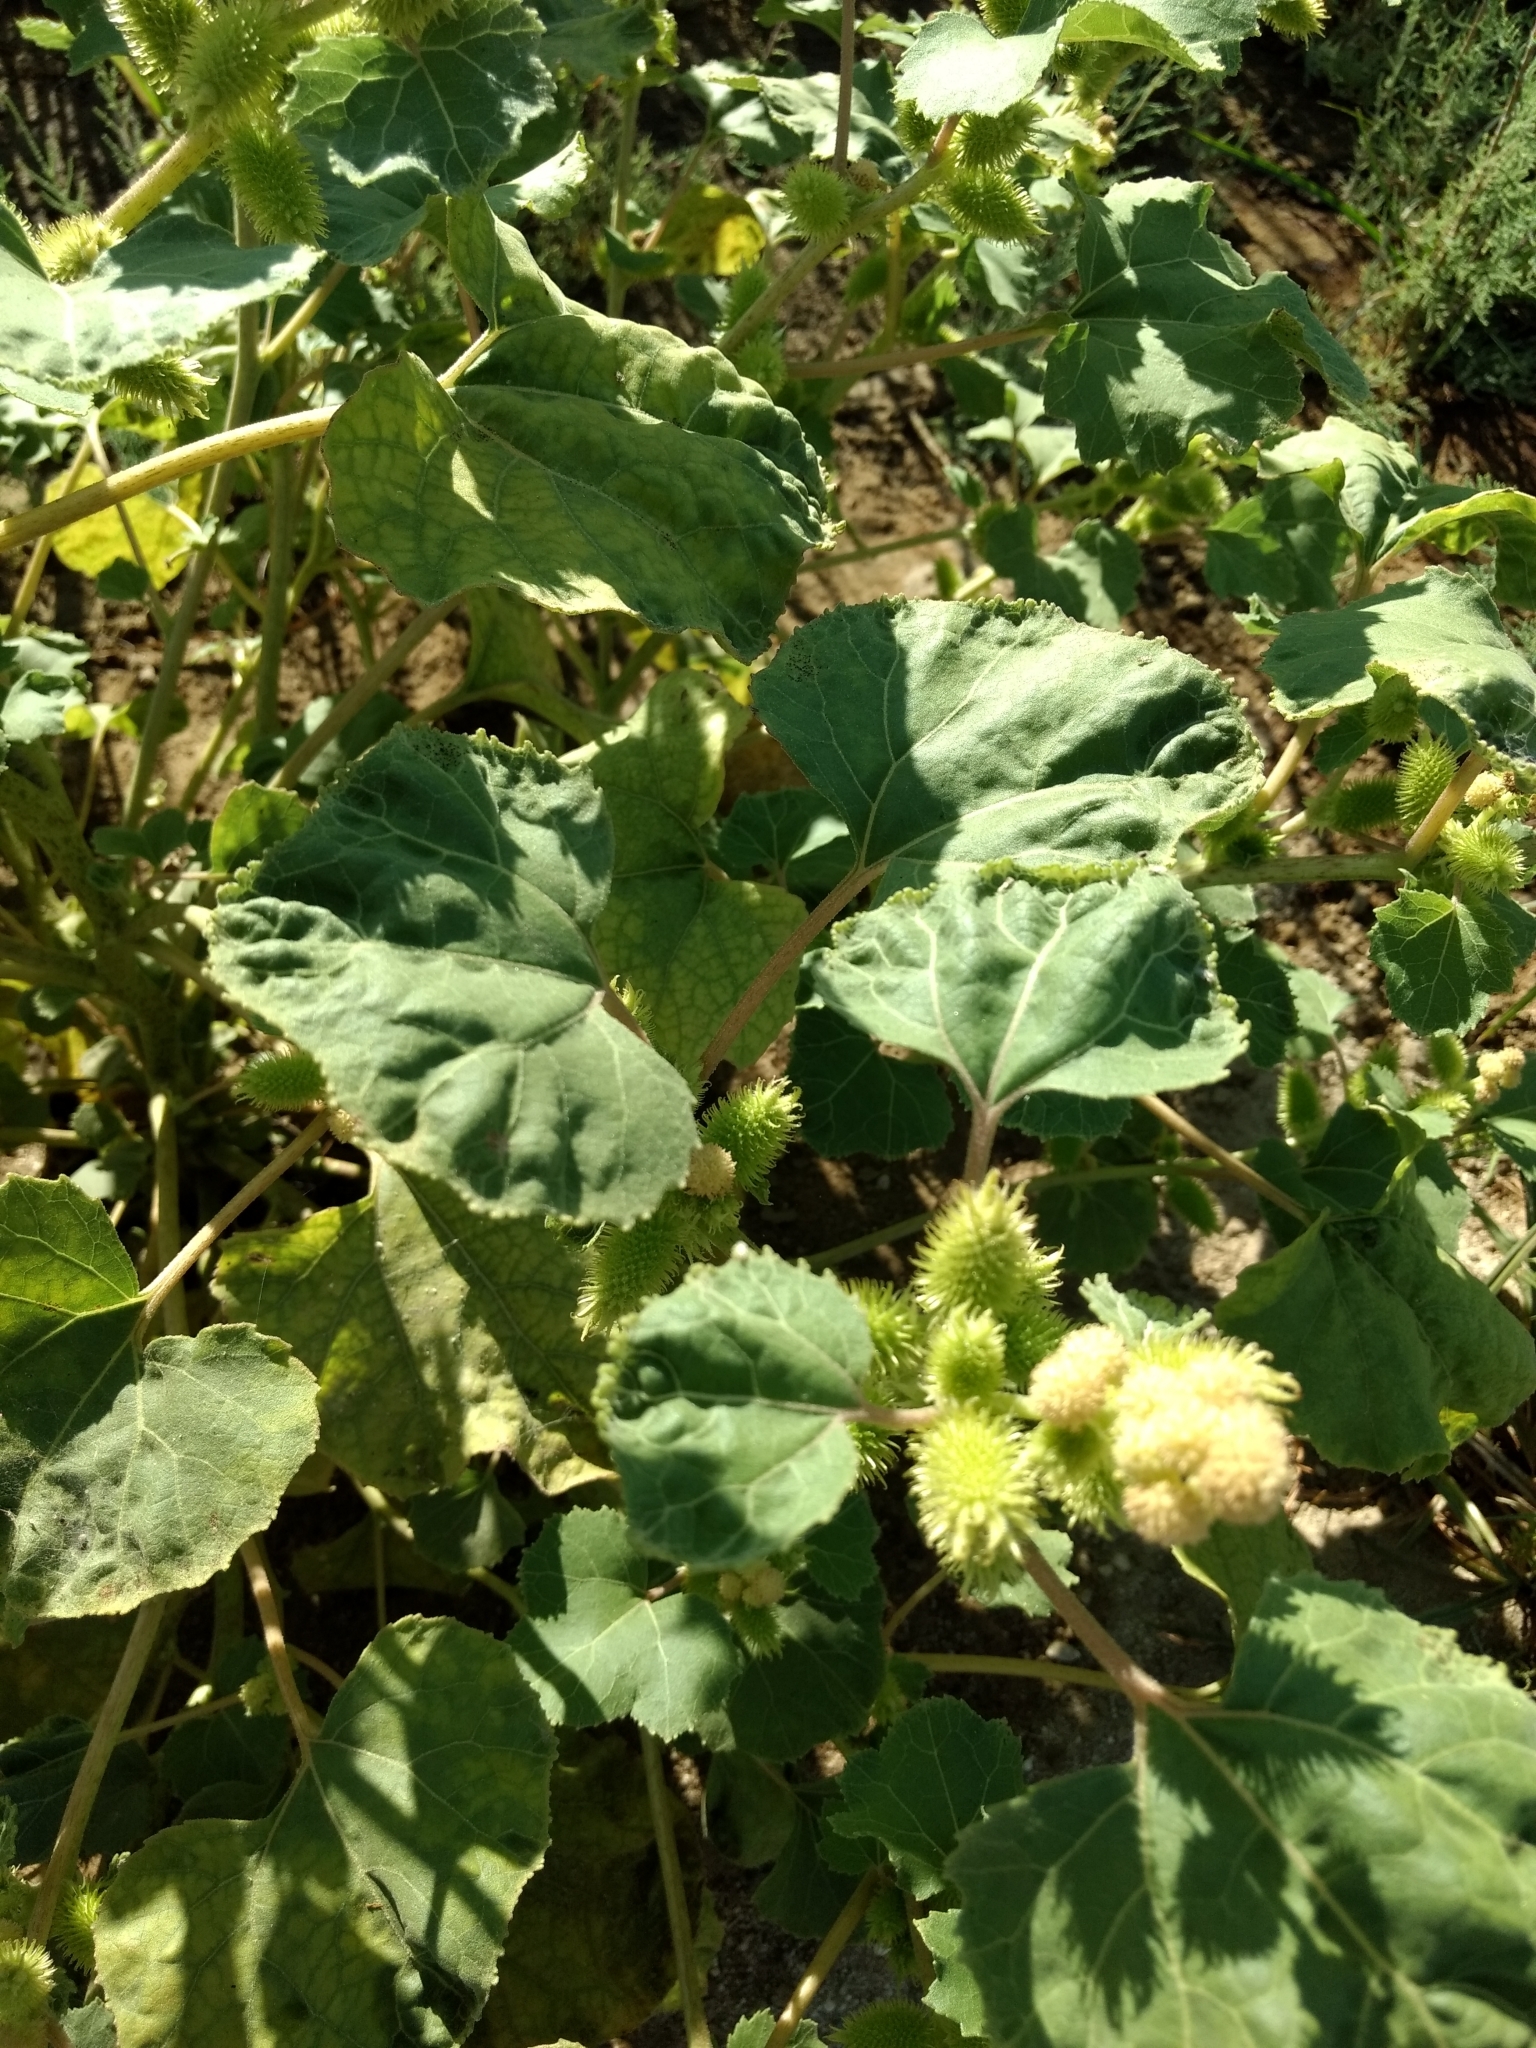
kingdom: Plantae
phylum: Tracheophyta
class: Magnoliopsida
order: Asterales
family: Asteraceae
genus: Xanthium
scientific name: Xanthium strumarium
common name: Rough cocklebur
